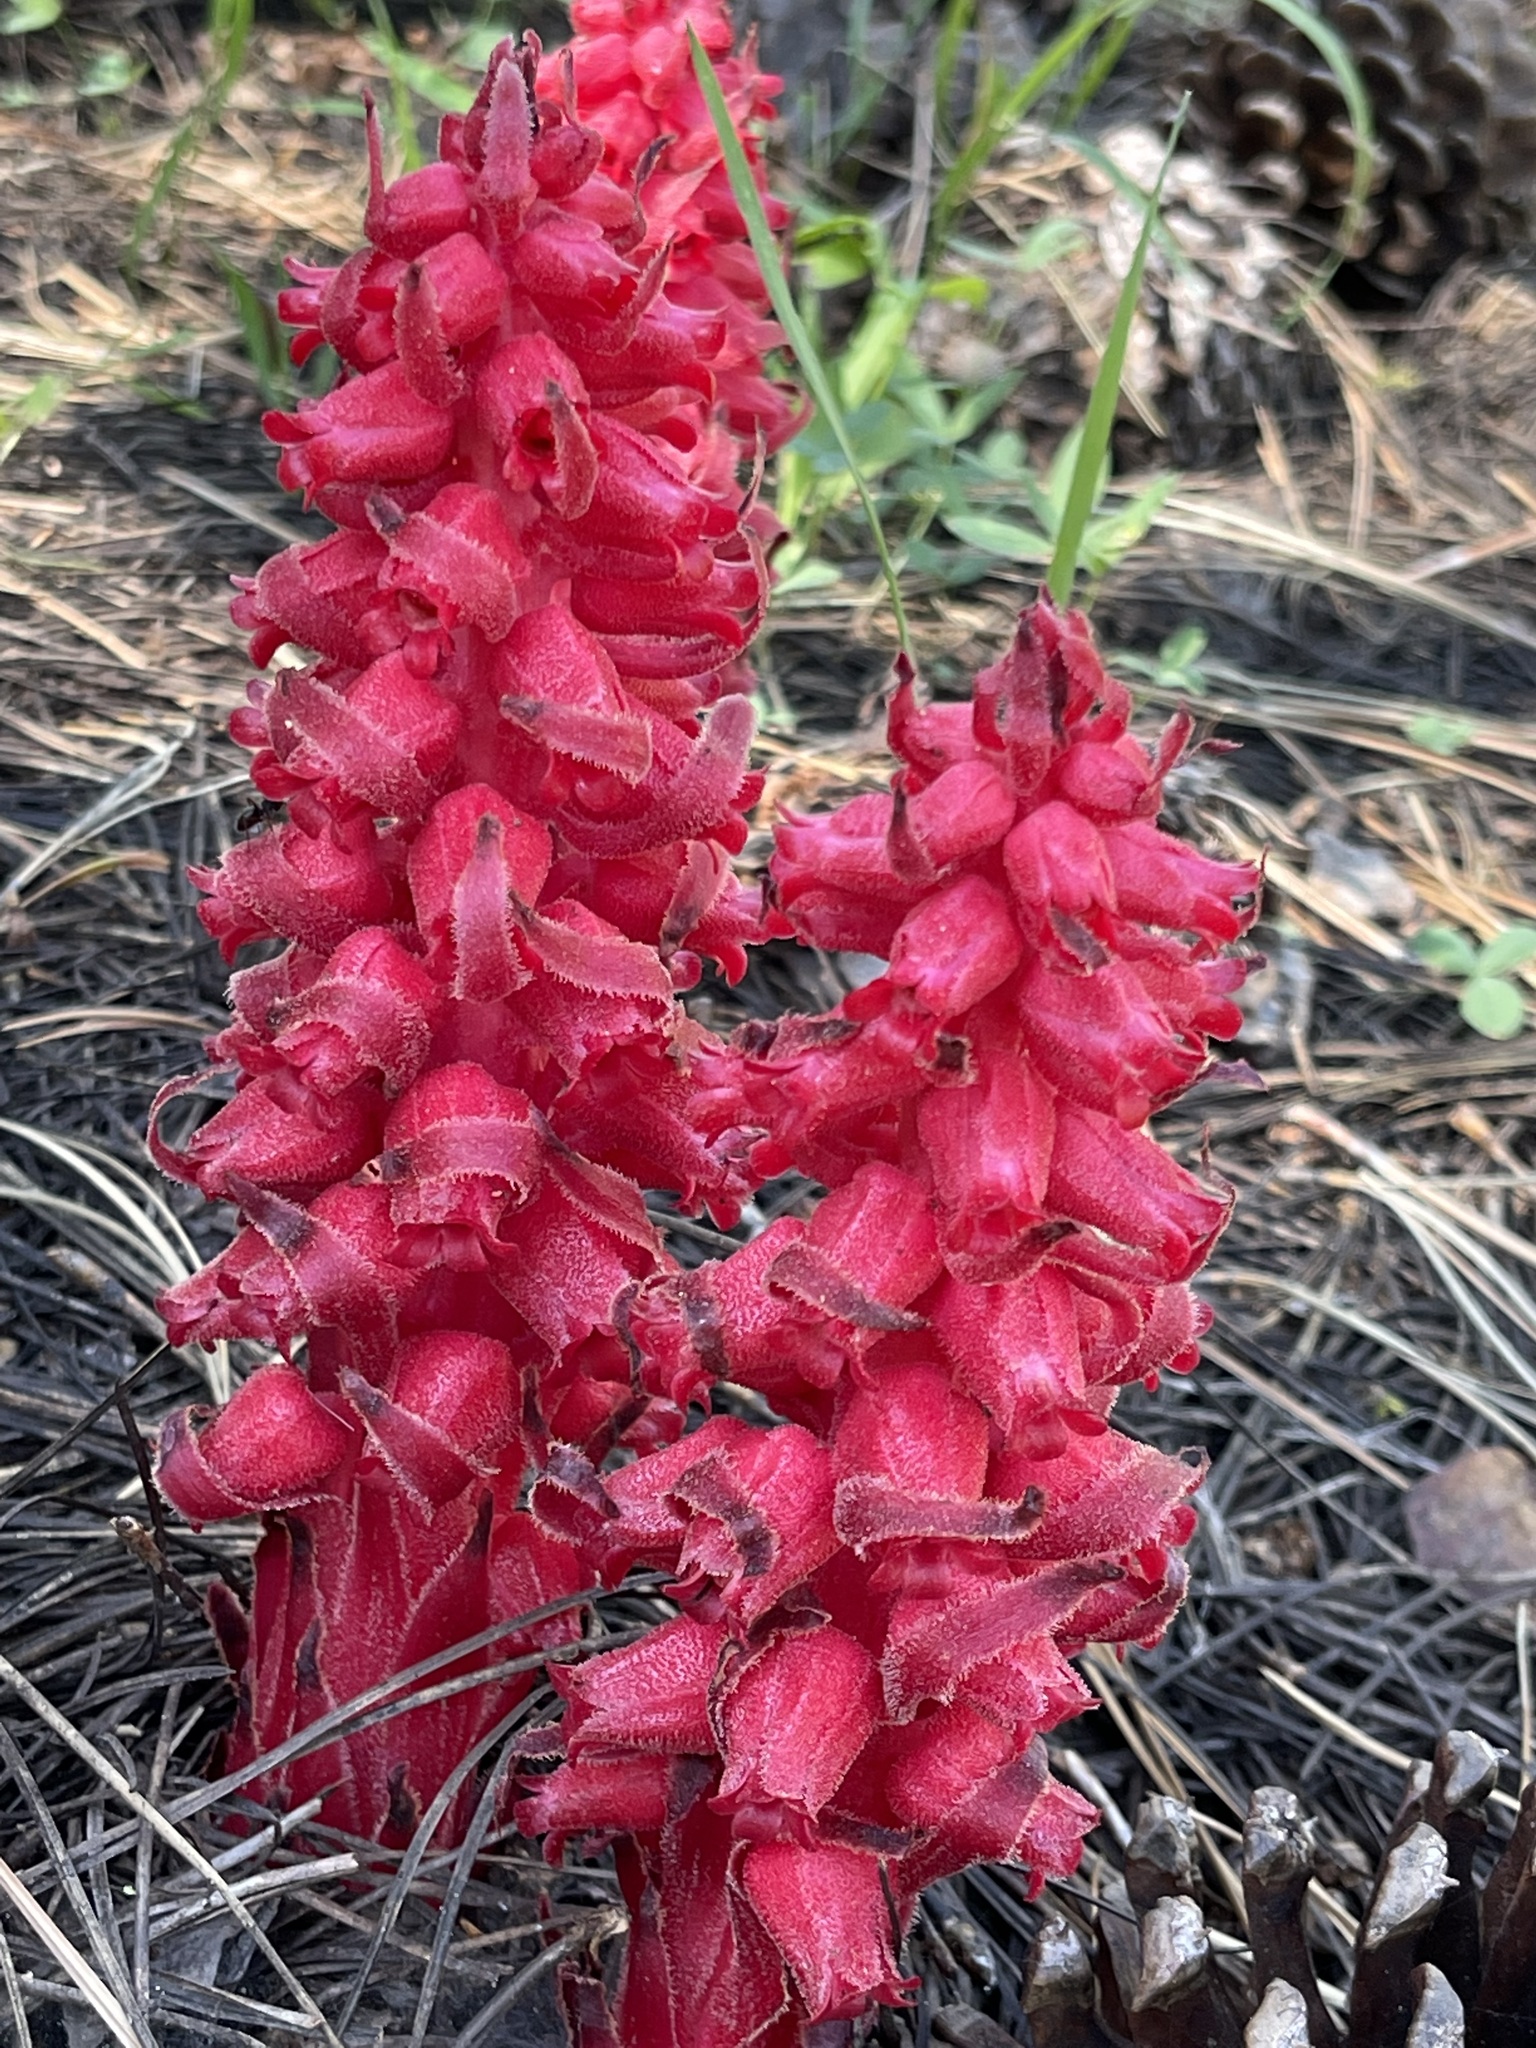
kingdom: Plantae
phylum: Tracheophyta
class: Magnoliopsida
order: Ericales
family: Ericaceae
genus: Sarcodes
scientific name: Sarcodes sanguinea
